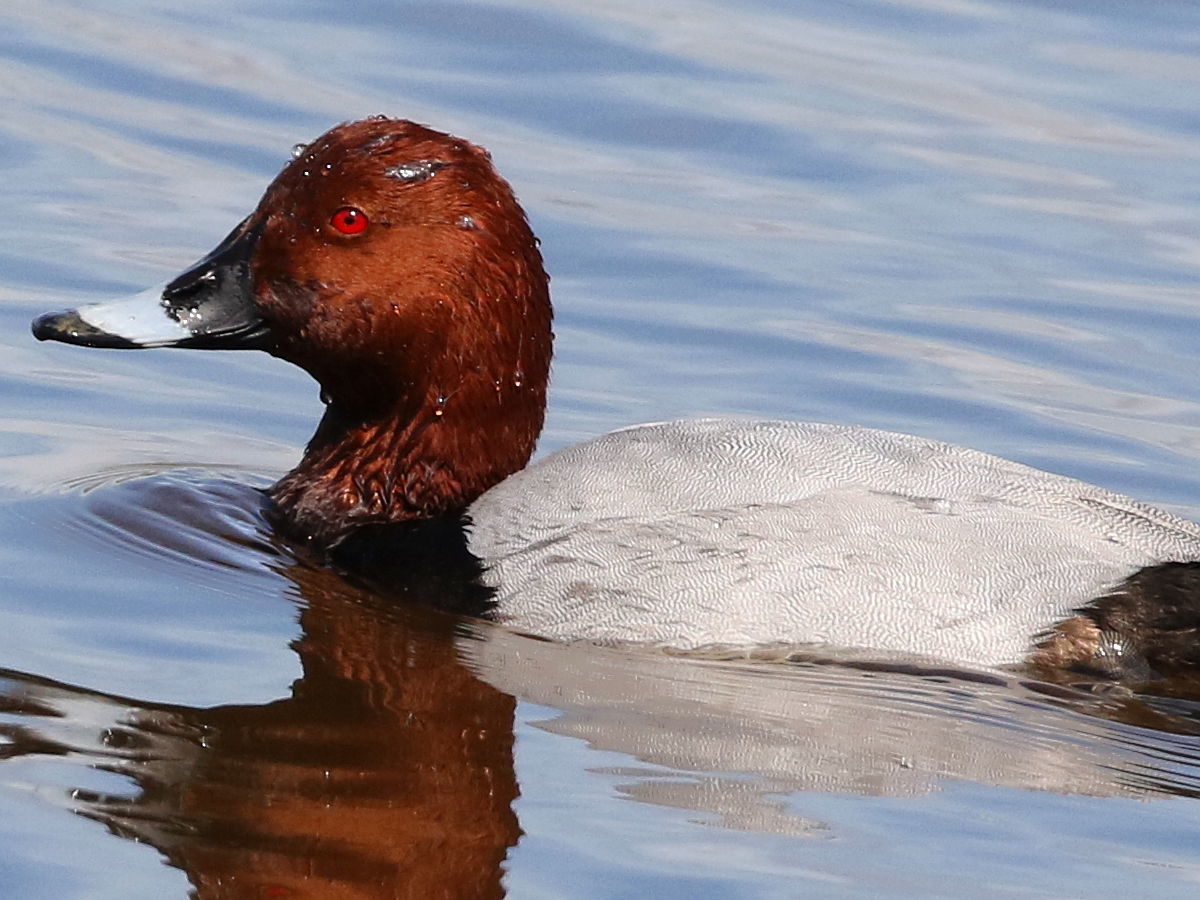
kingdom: Animalia
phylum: Chordata
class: Aves
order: Anseriformes
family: Anatidae
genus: Aythya
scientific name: Aythya ferina
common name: Common pochard
